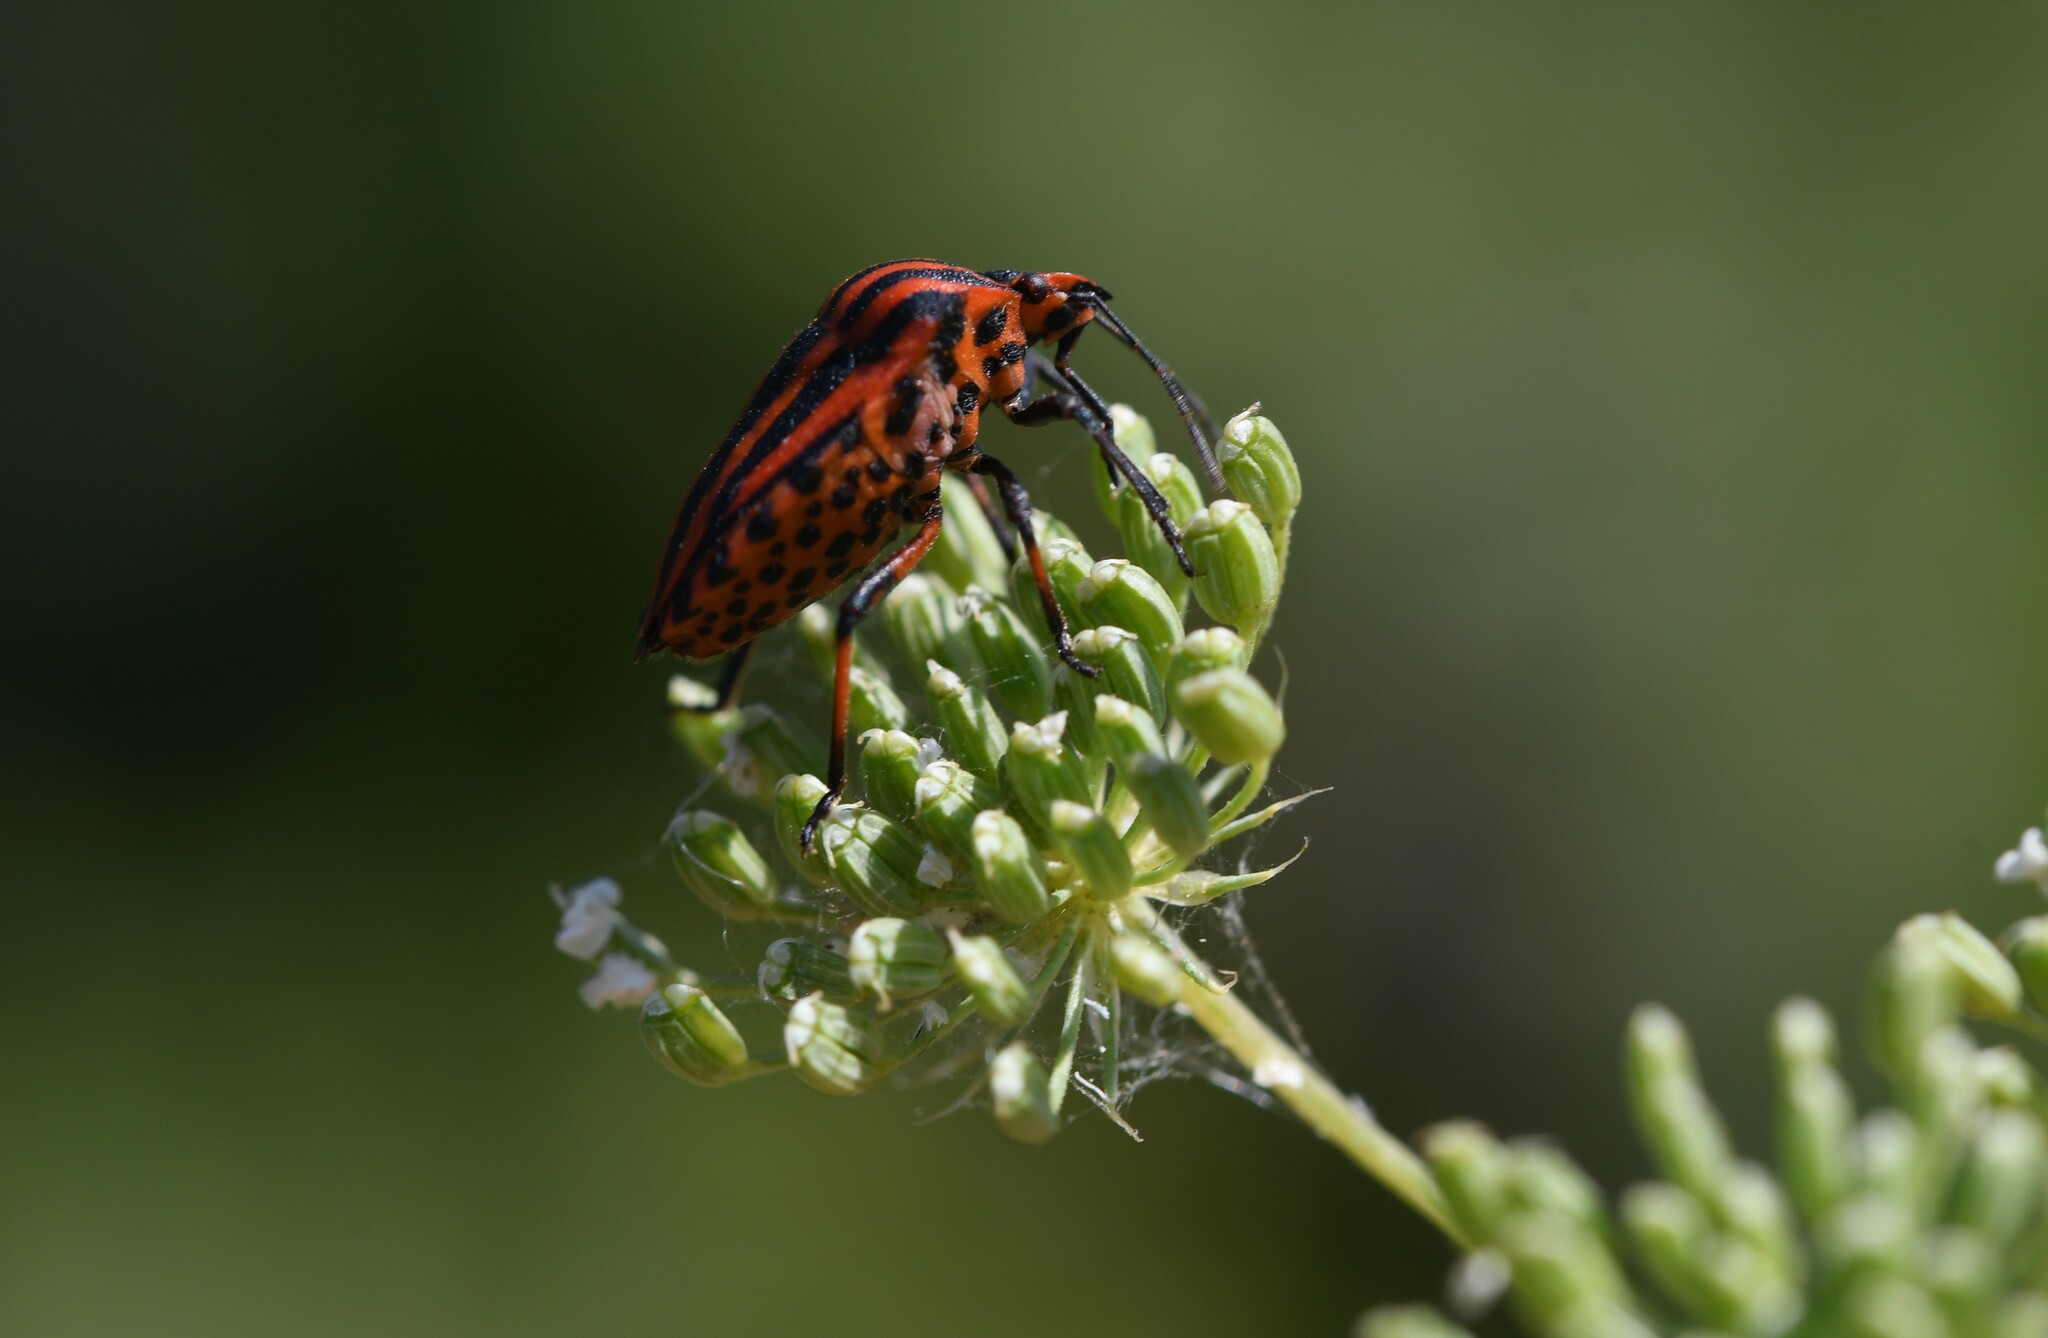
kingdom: Animalia
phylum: Arthropoda
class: Insecta
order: Hemiptera
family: Pentatomidae
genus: Graphosoma
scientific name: Graphosoma italicum
